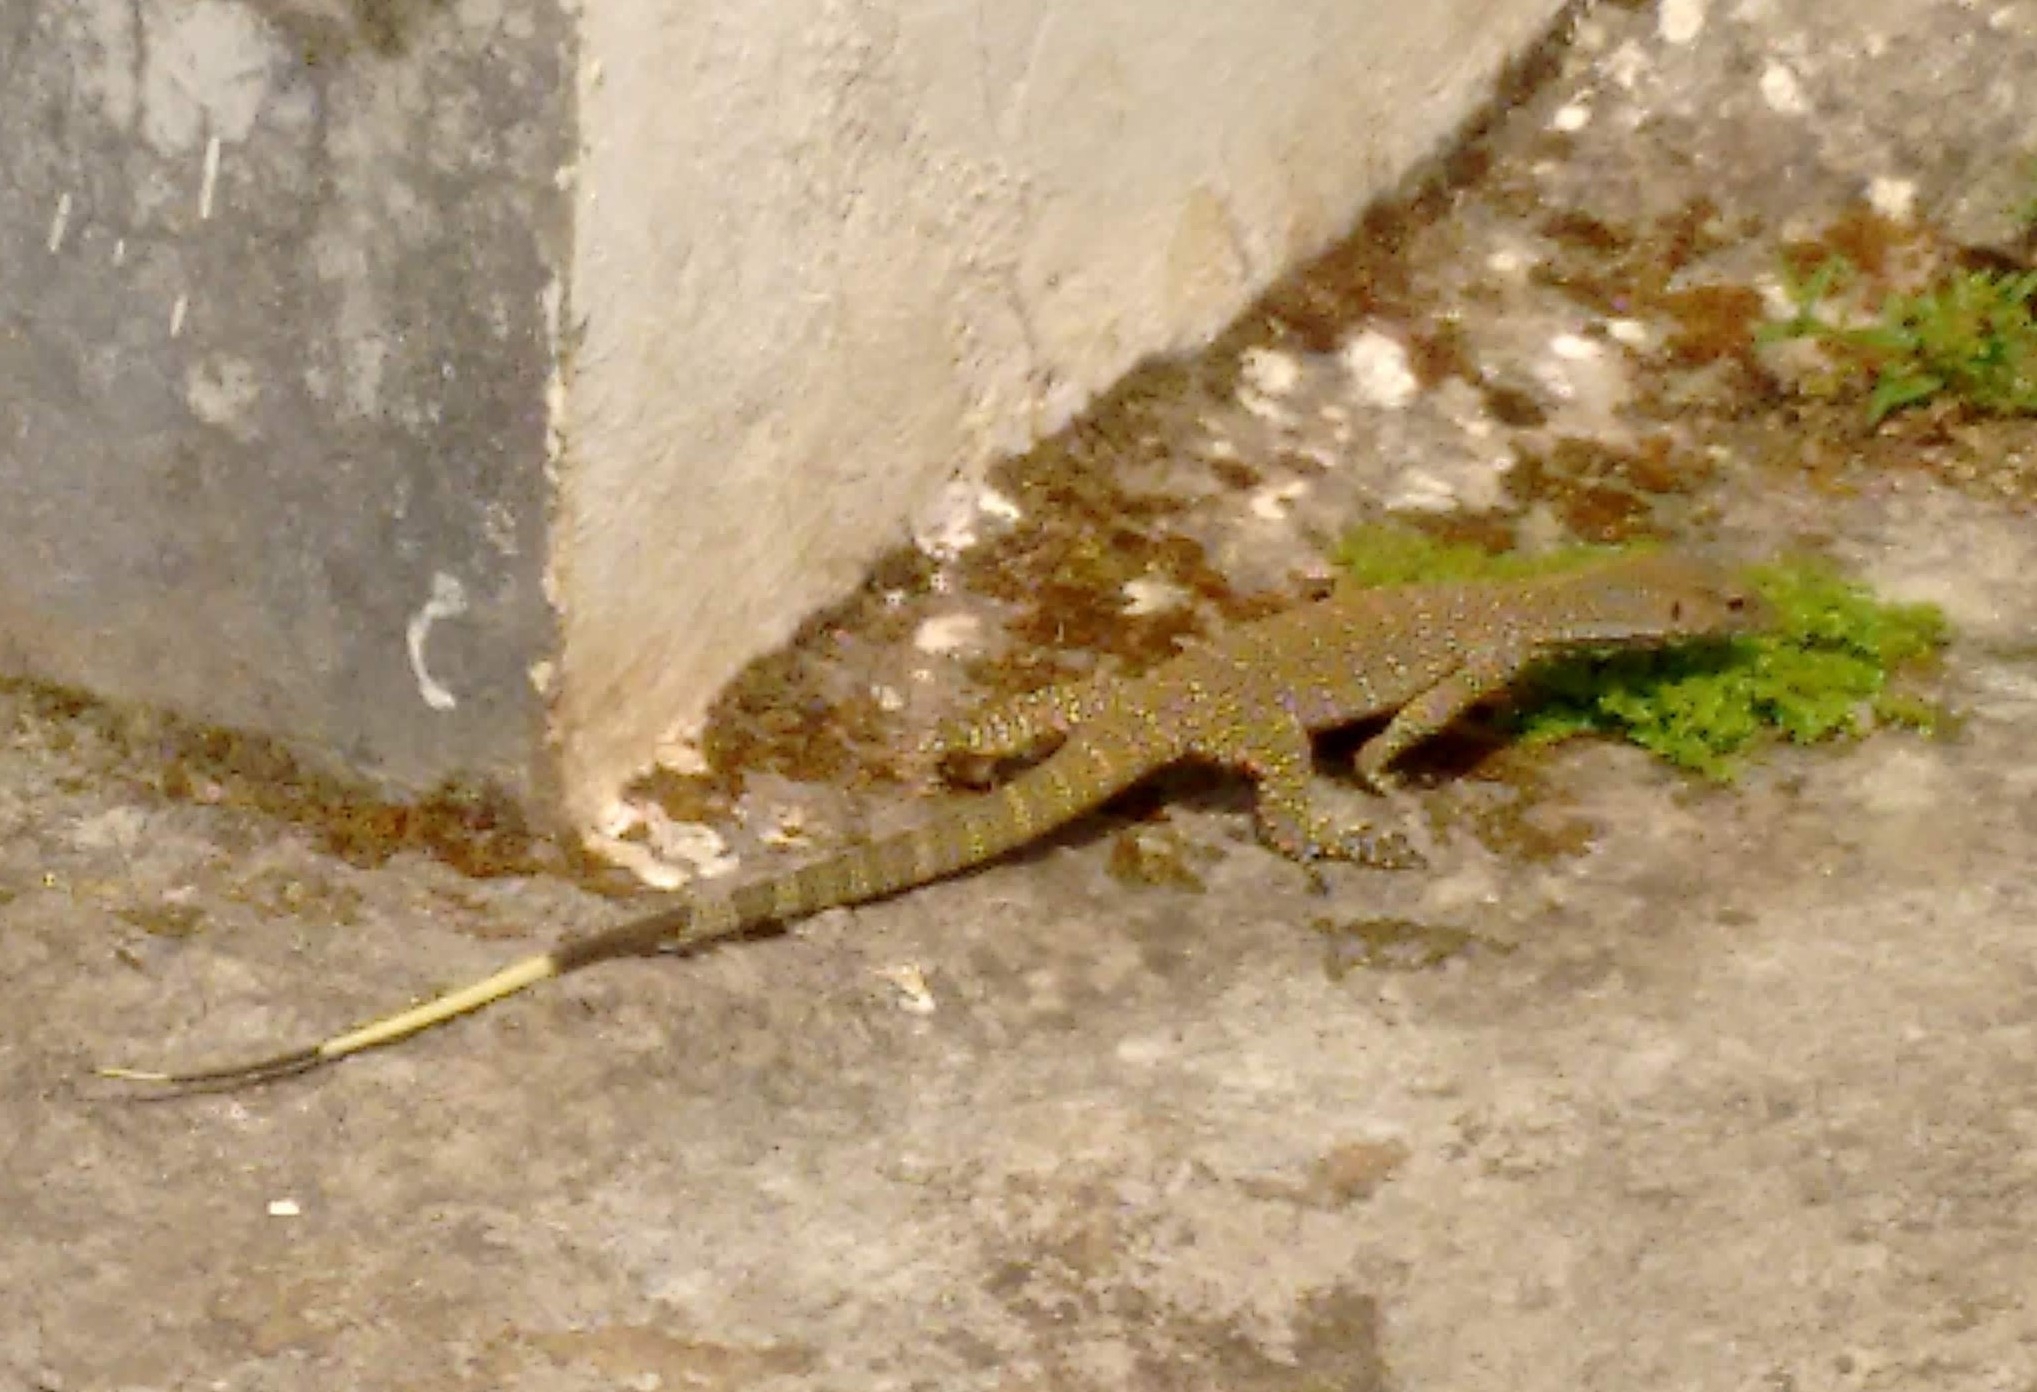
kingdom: Animalia
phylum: Chordata
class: Squamata
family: Varanidae
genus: Varanus
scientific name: Varanus bengalensis
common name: Bengal monitor
